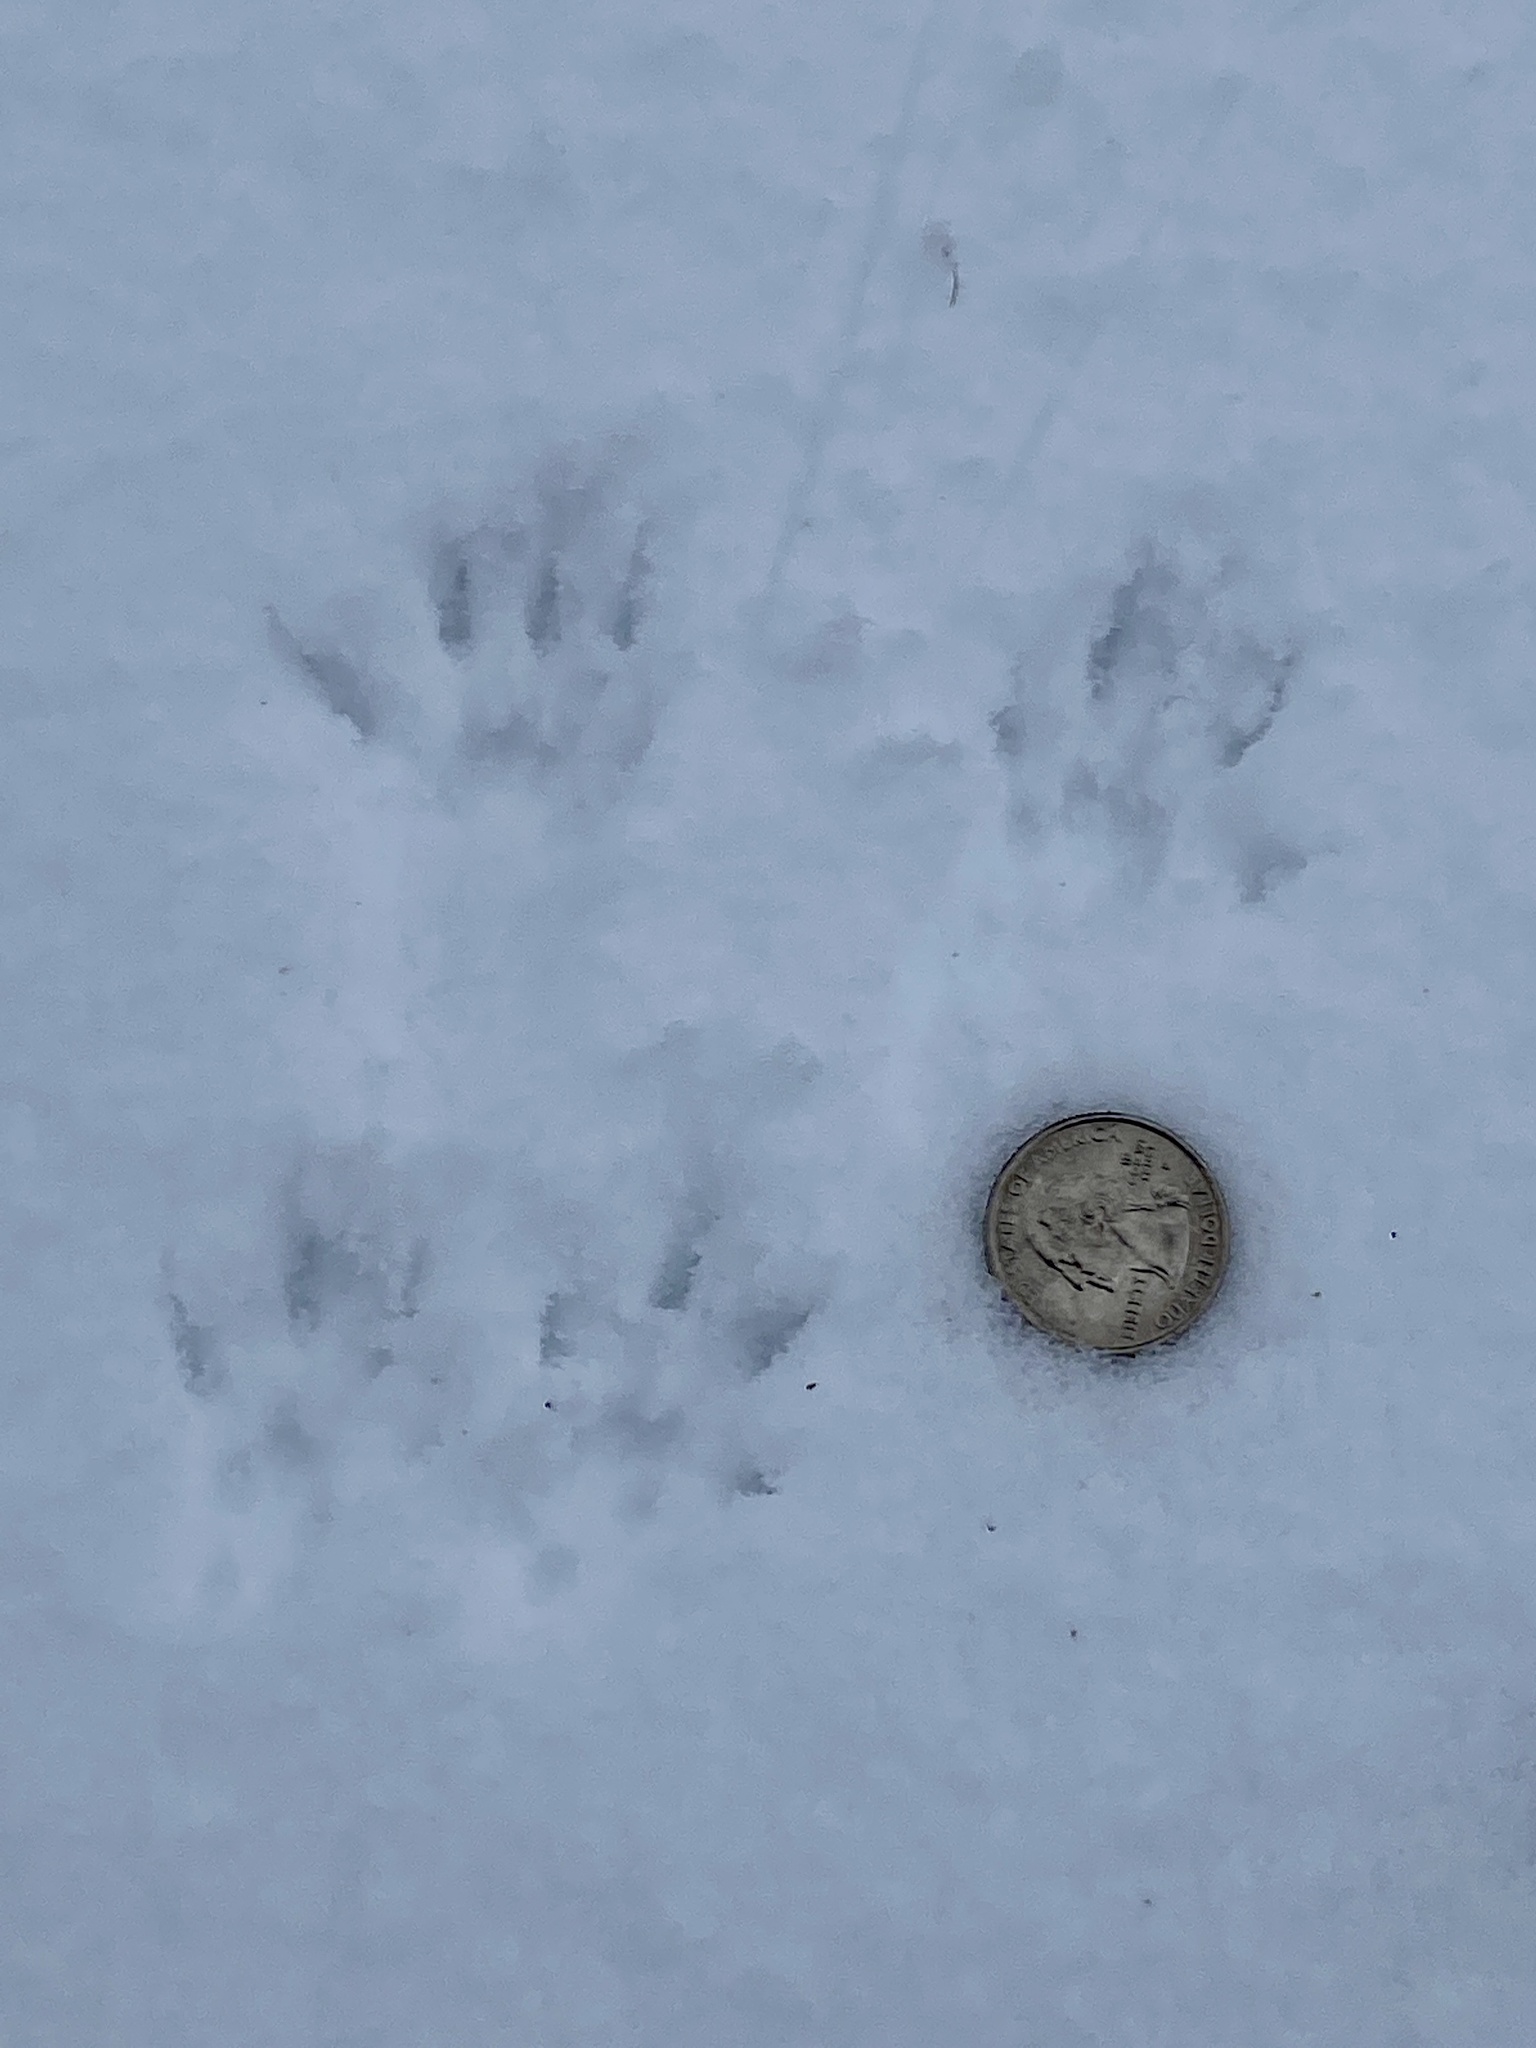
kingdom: Animalia
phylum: Chordata
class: Mammalia
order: Rodentia
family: Sciuridae
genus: Sciurus
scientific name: Sciurus carolinensis
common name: Eastern gray squirrel
